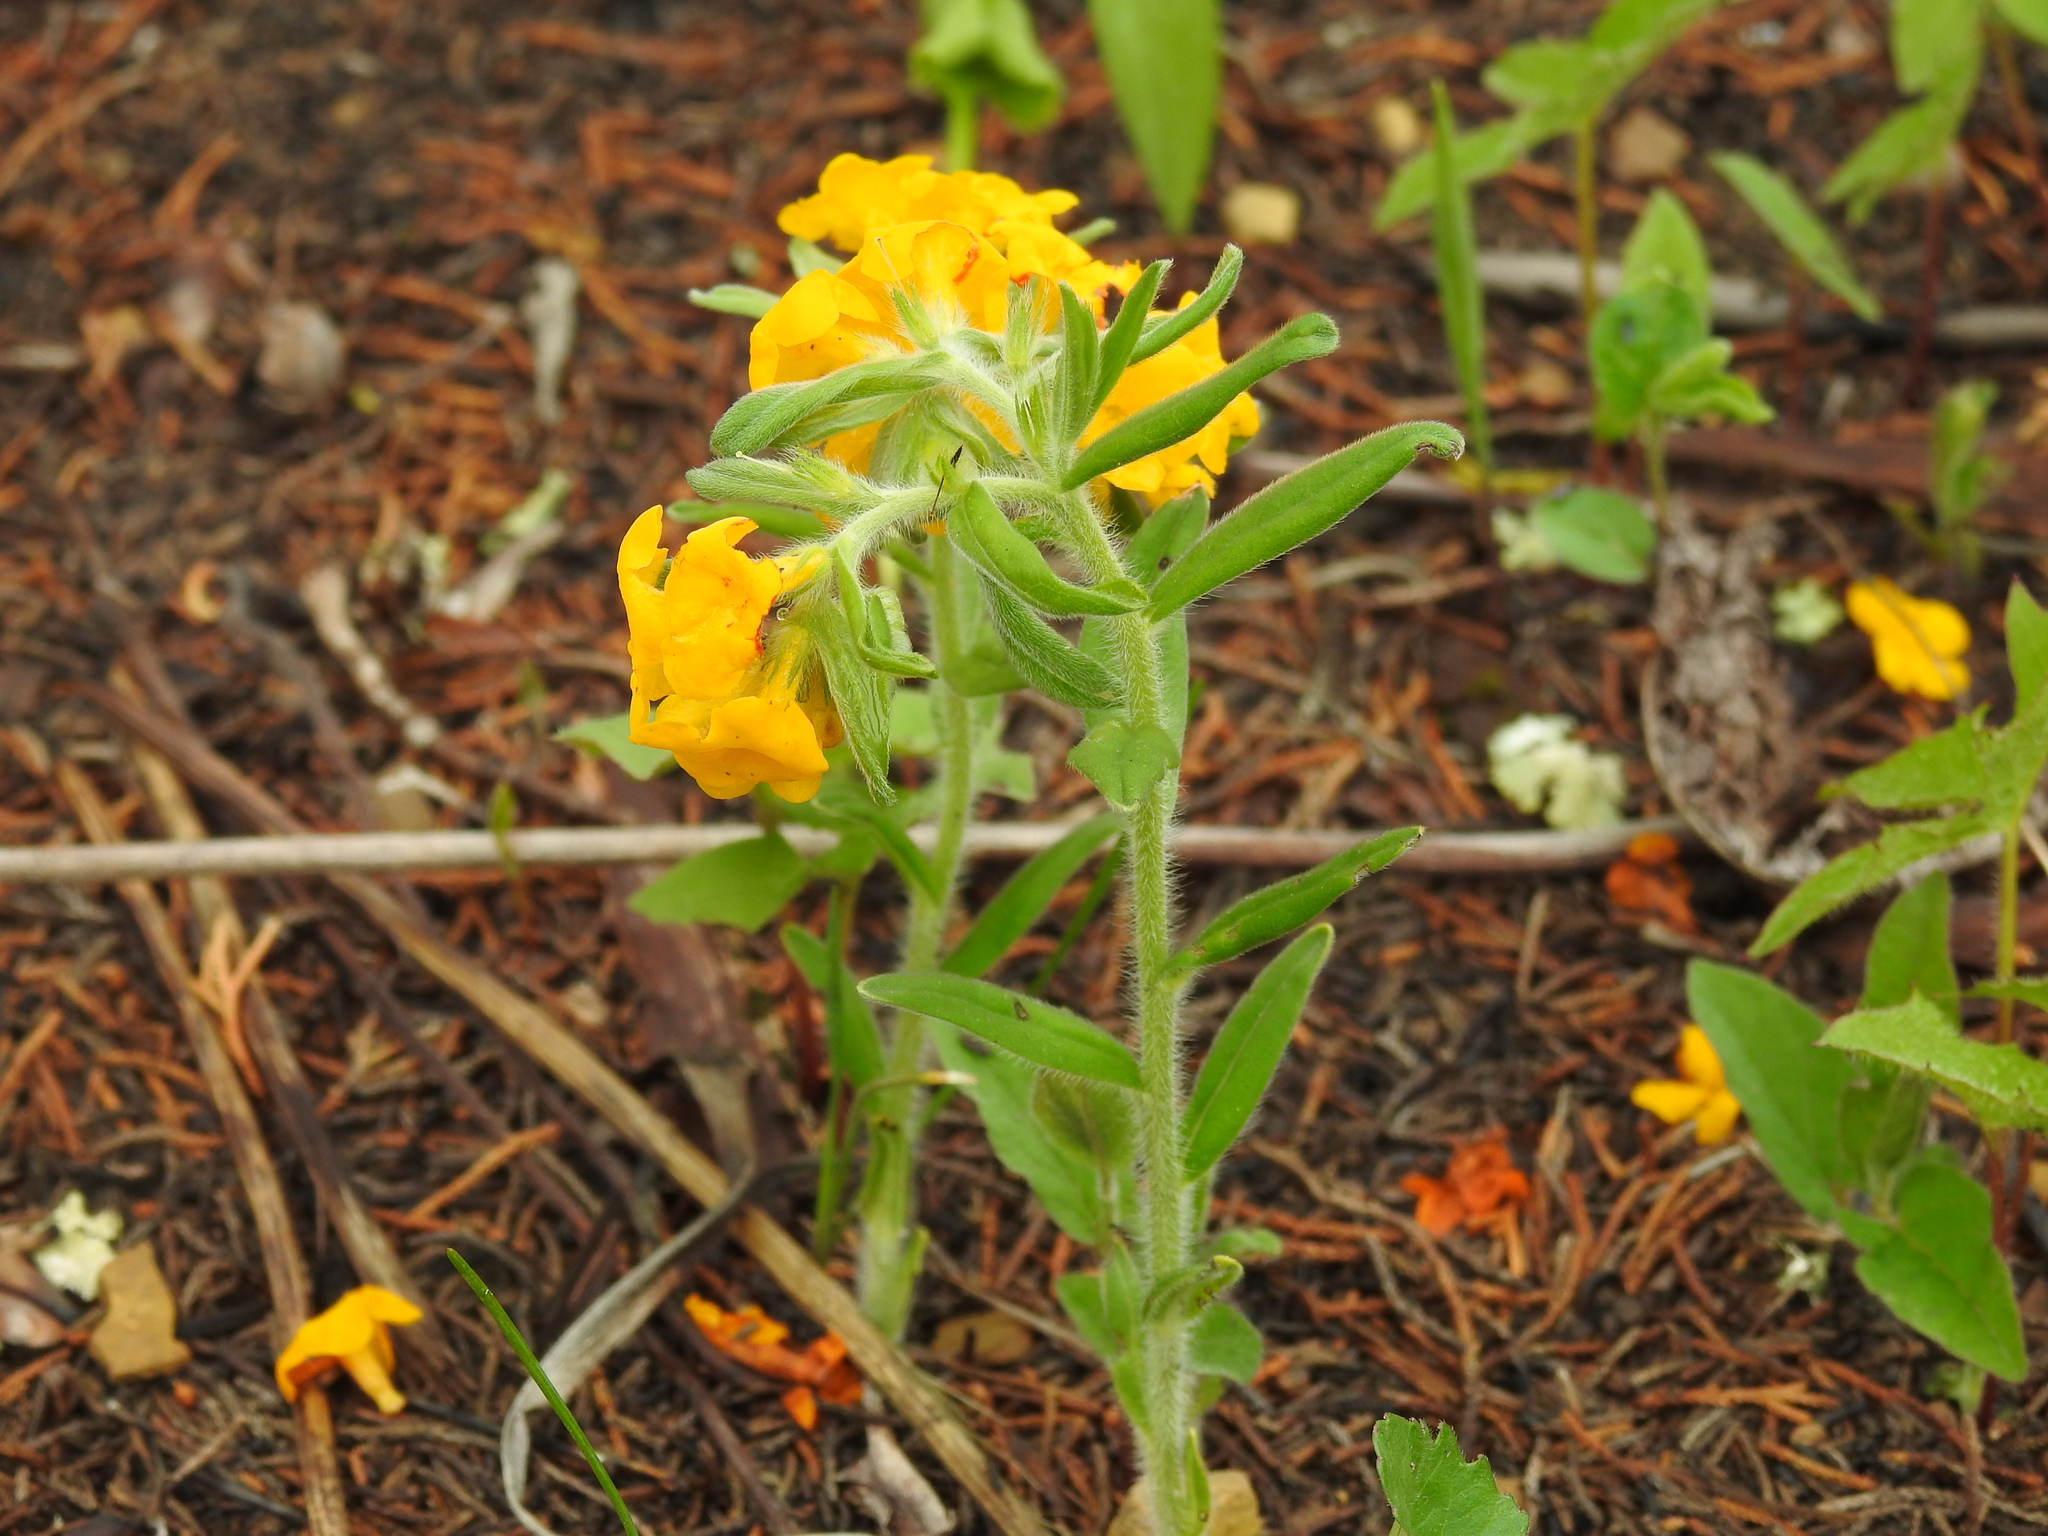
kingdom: Plantae
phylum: Tracheophyta
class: Magnoliopsida
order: Boraginales
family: Boraginaceae
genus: Lithospermum
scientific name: Lithospermum canescens
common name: Hoary puccoon
